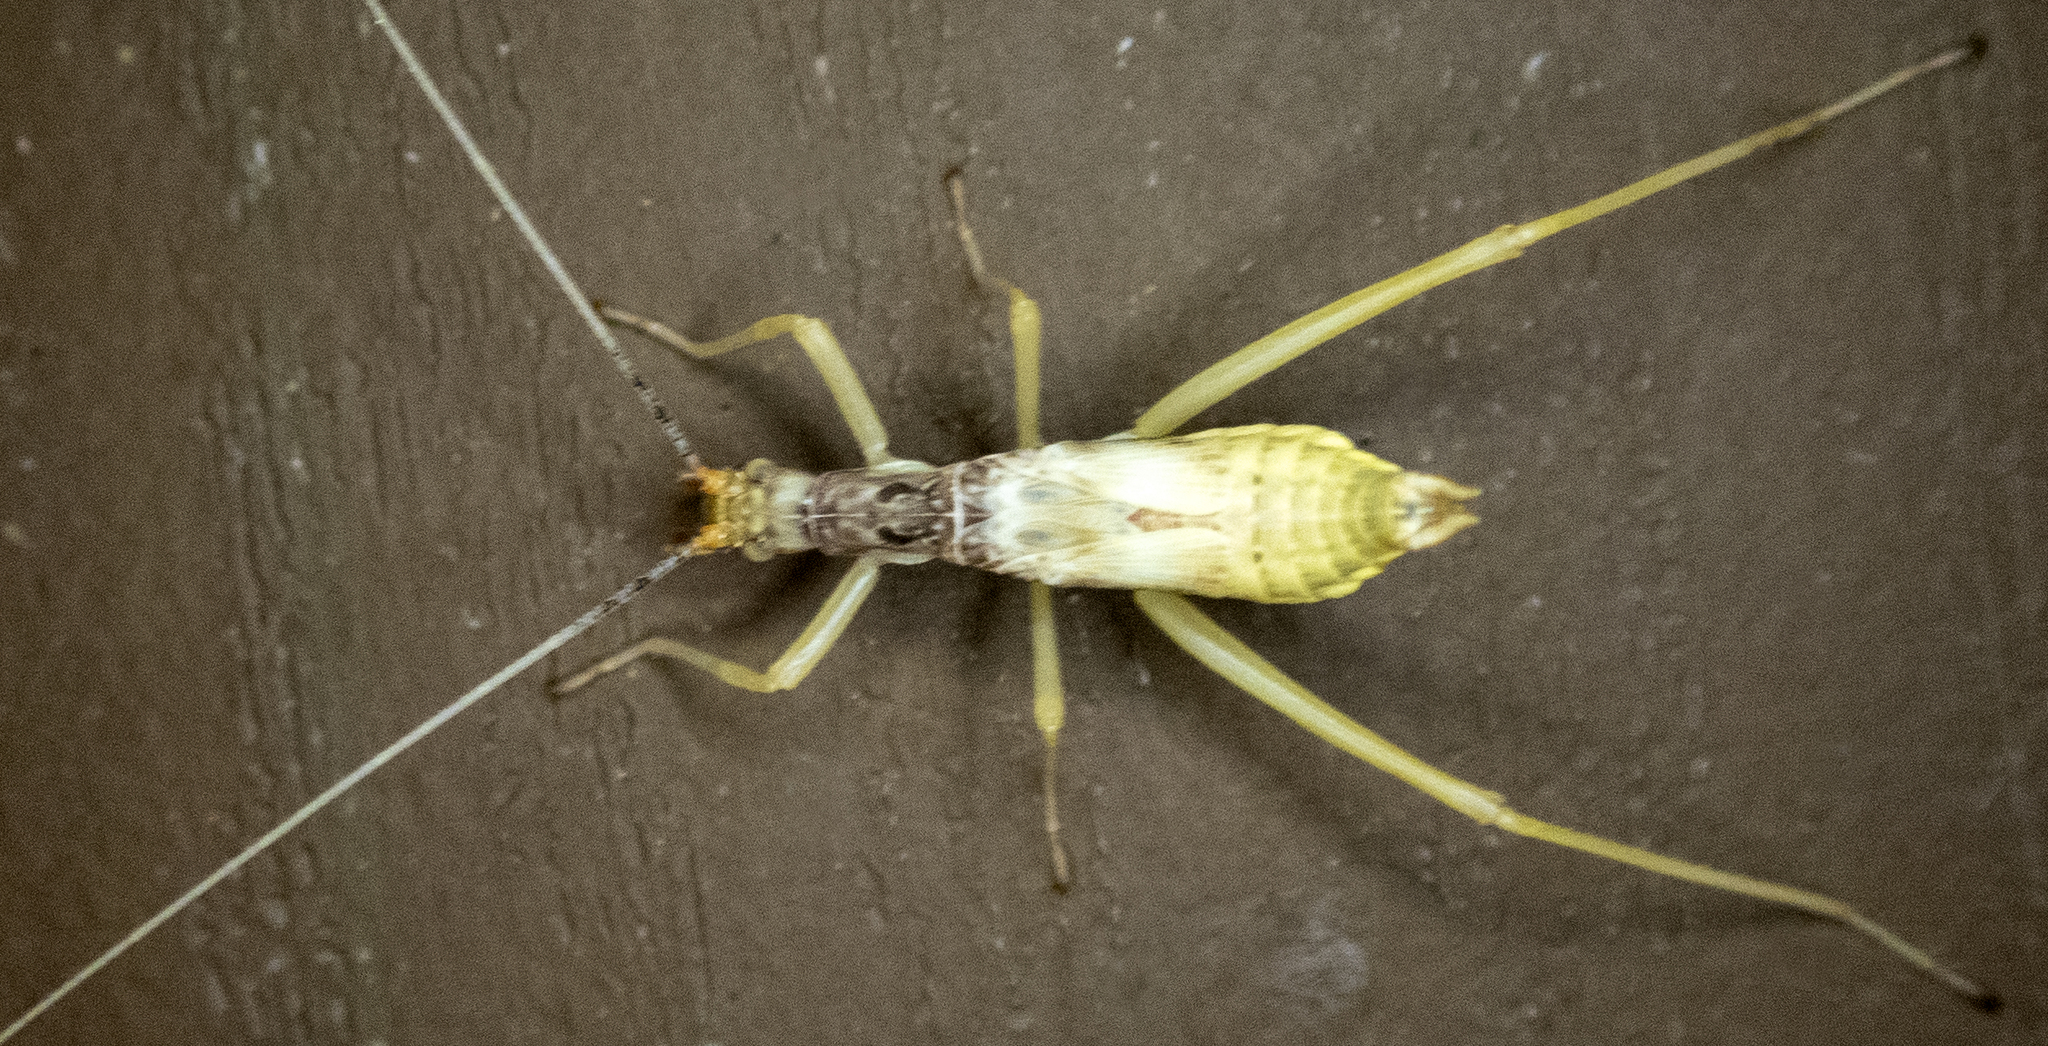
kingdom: Animalia
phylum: Arthropoda
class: Insecta
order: Orthoptera
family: Gryllidae
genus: Neoxabea
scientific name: Neoxabea bipunctata
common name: Two-spotted tree cricket
